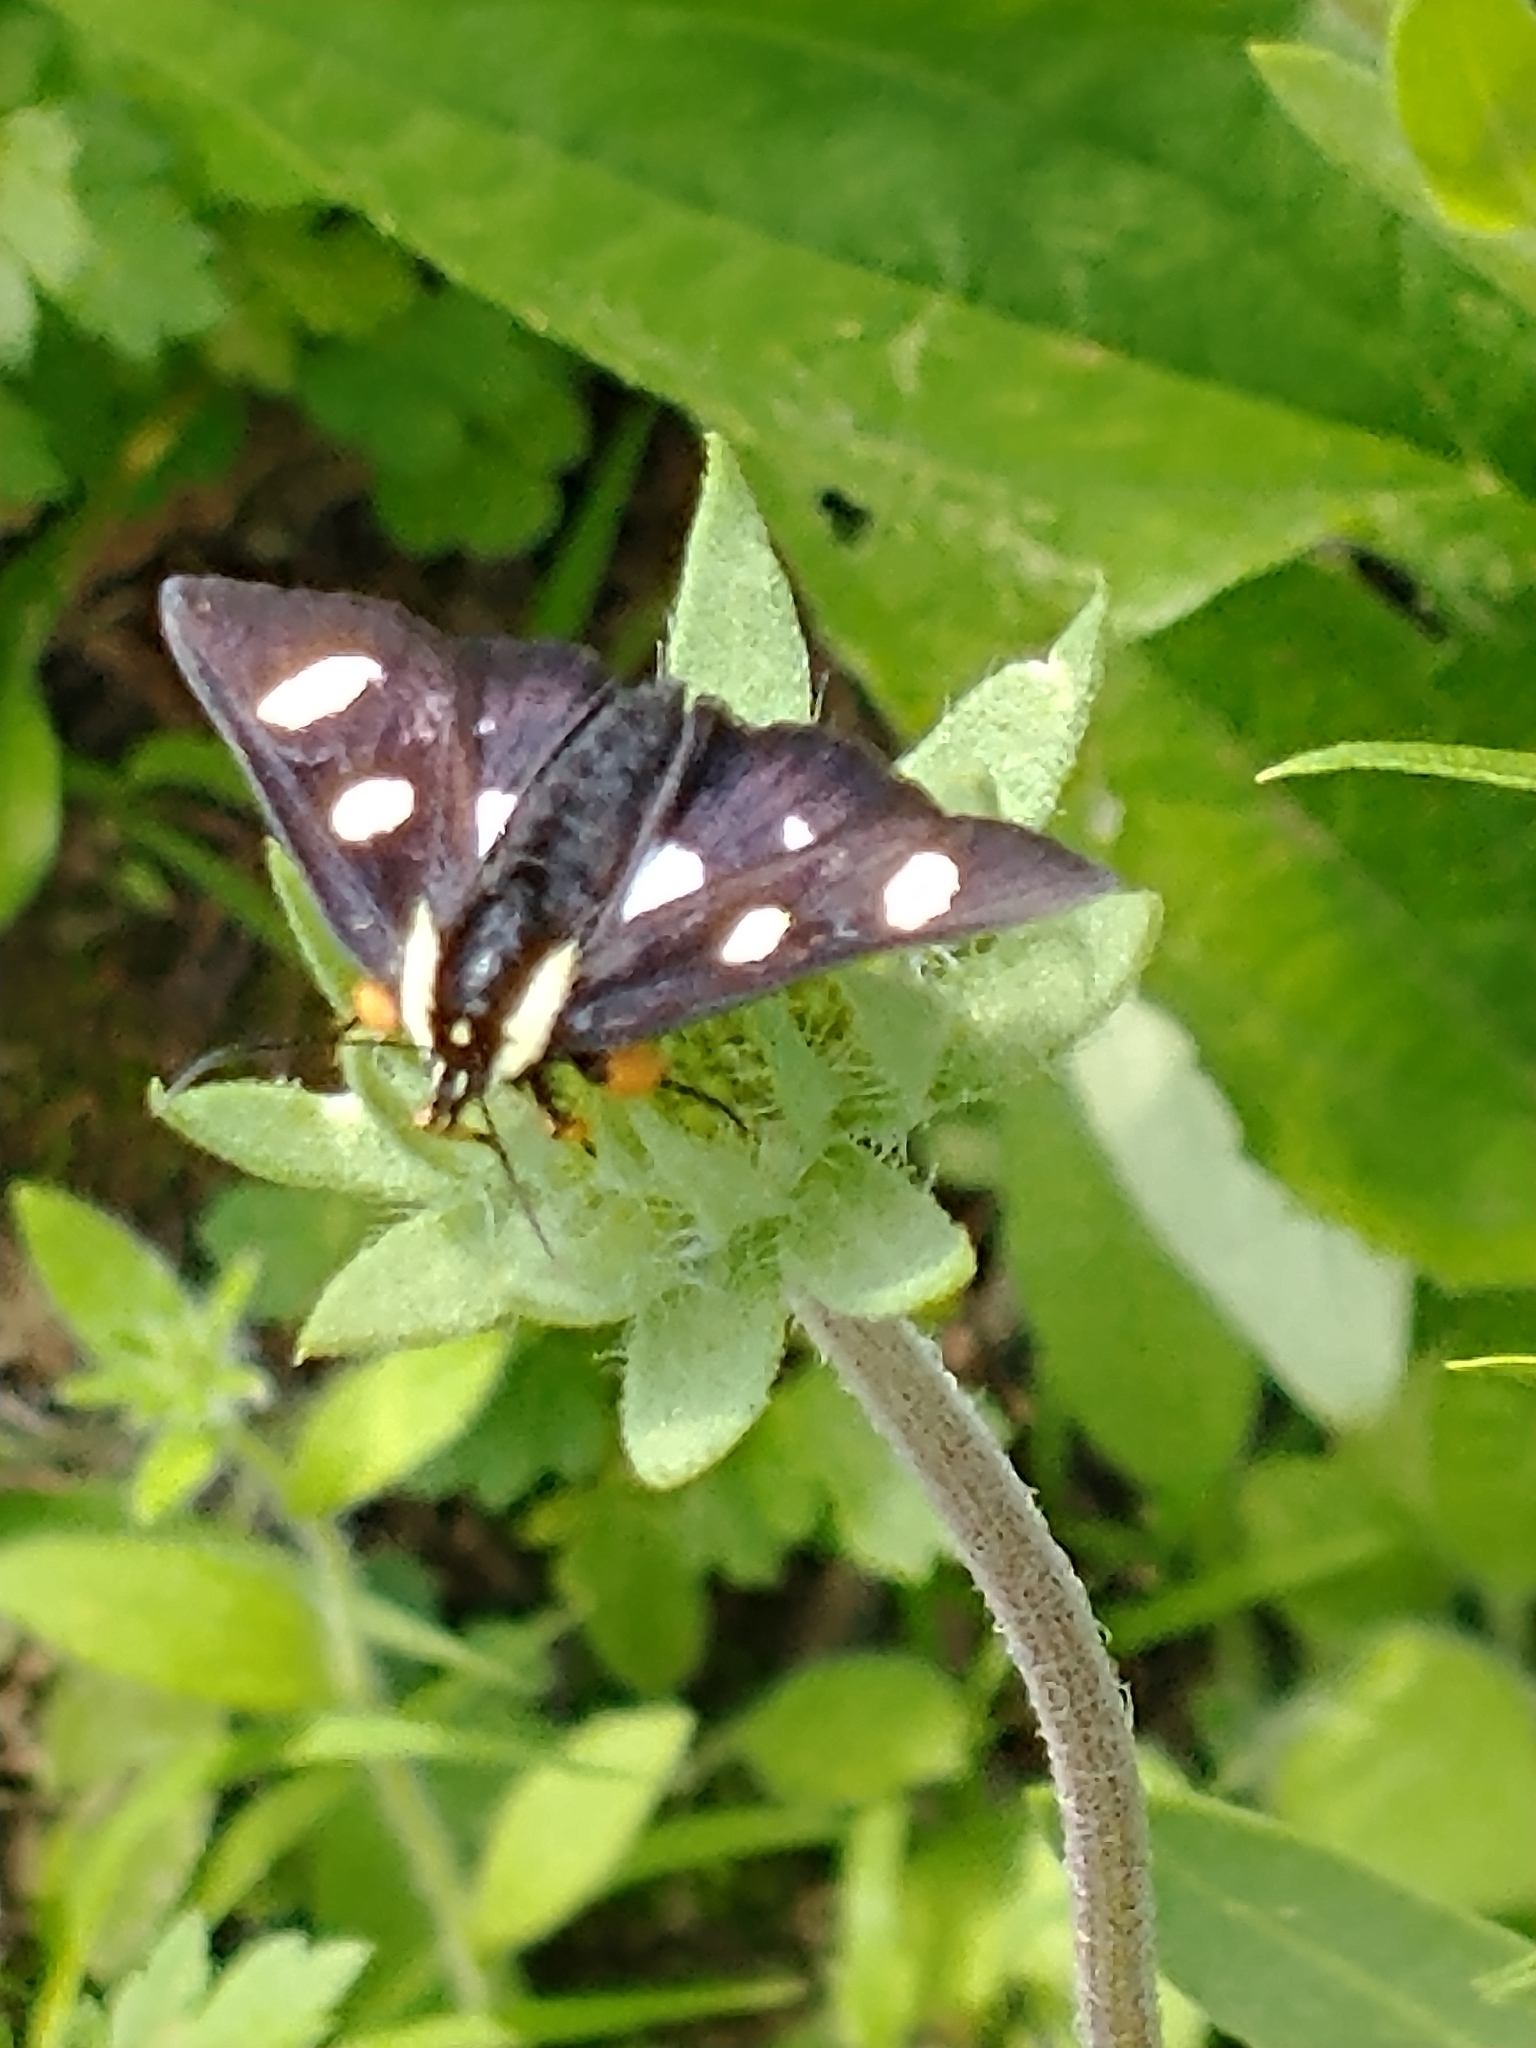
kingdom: Animalia
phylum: Arthropoda
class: Insecta
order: Lepidoptera
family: Noctuidae
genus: Alypia
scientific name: Alypia octomaculata
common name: Eight-spotted forester
